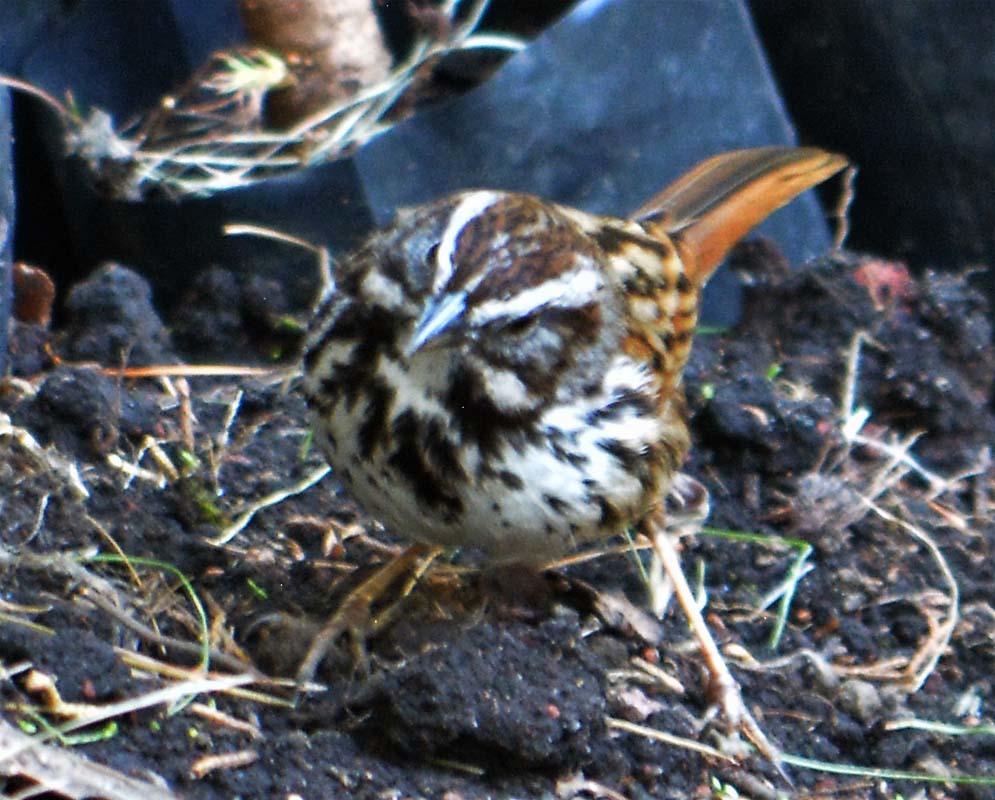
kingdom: Animalia
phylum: Chordata
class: Aves
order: Passeriformes
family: Passerellidae
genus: Melospiza
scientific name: Melospiza melodia
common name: Song sparrow
